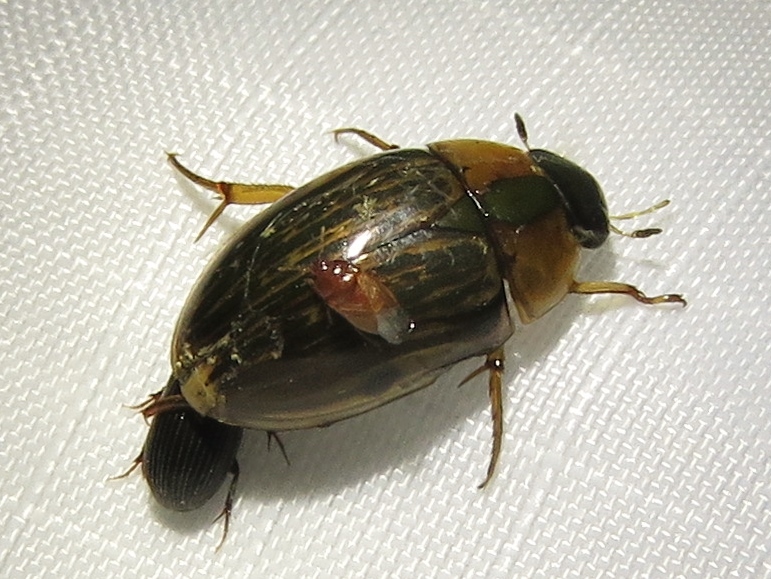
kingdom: Animalia
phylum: Arthropoda
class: Insecta
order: Coleoptera
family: Hydrophilidae
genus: Tropisternus
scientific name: Tropisternus collaris
